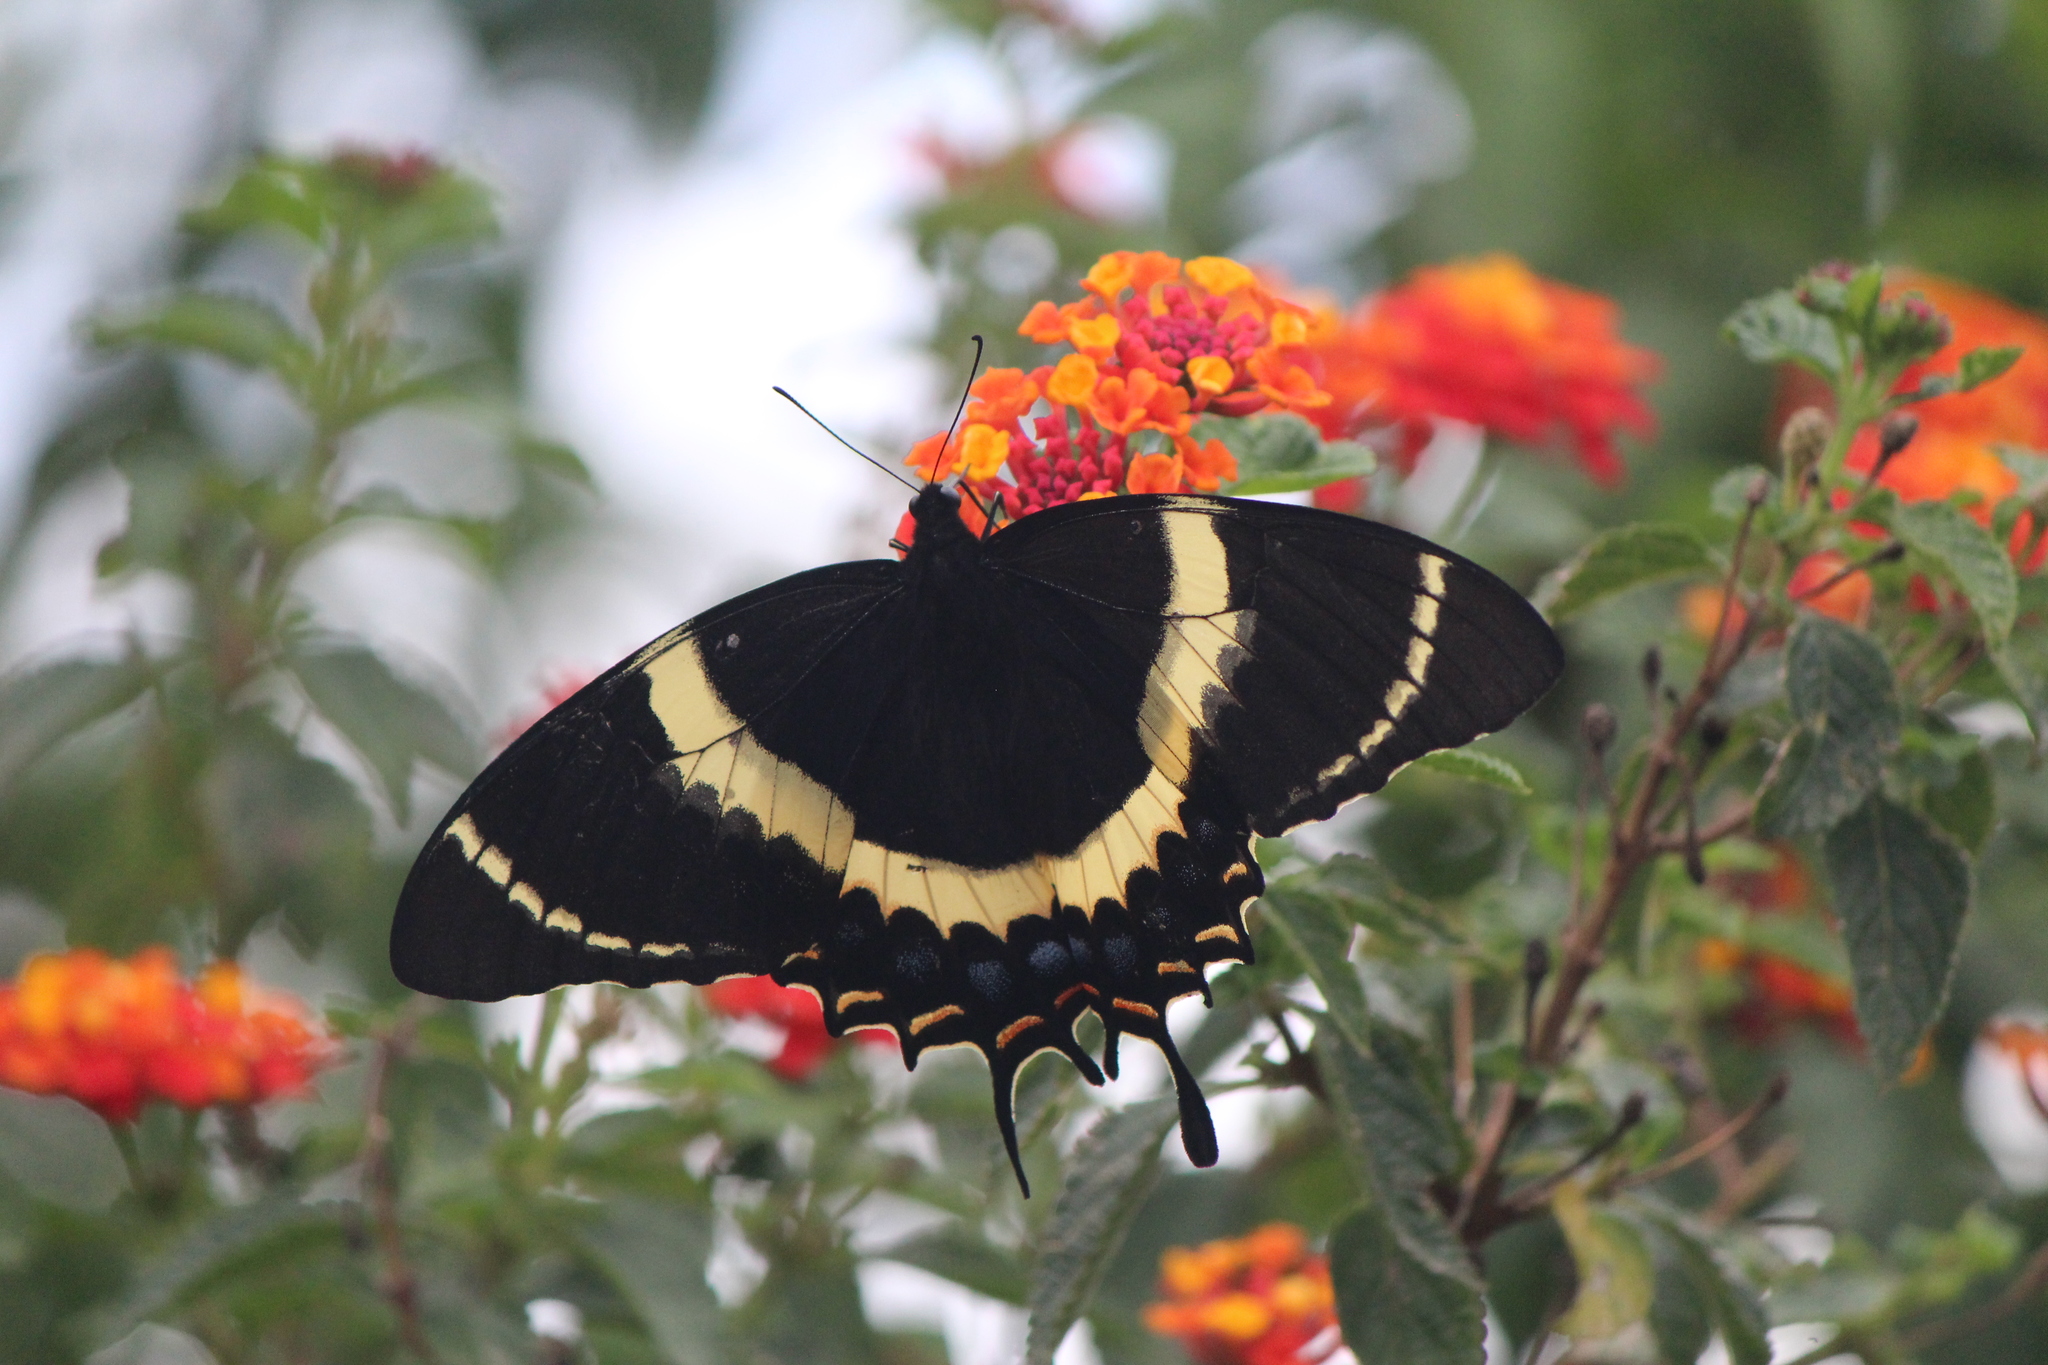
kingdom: Animalia
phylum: Arthropoda
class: Insecta
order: Lepidoptera
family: Papilionidae
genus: Papilio
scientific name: Papilio garamas
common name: Magnificent swallowtail
